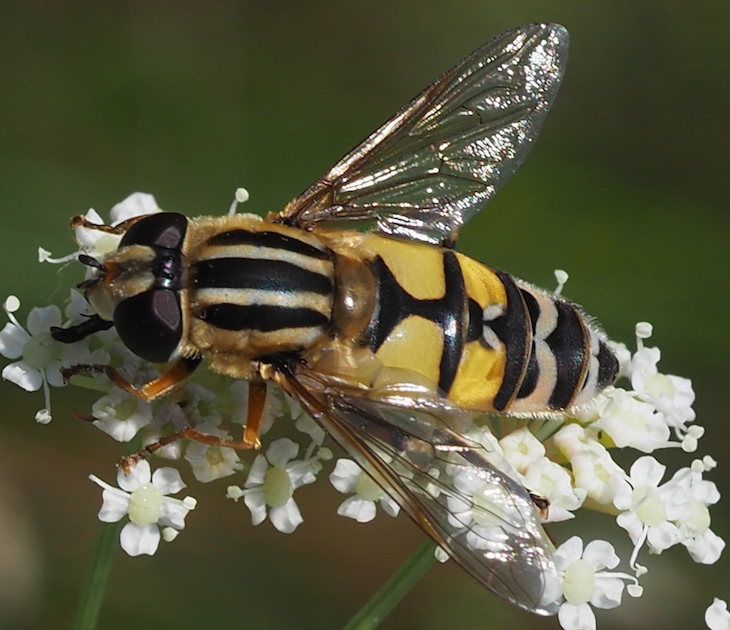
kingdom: Animalia
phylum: Arthropoda
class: Insecta
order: Diptera
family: Syrphidae
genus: Helophilus
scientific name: Helophilus trivittatus
